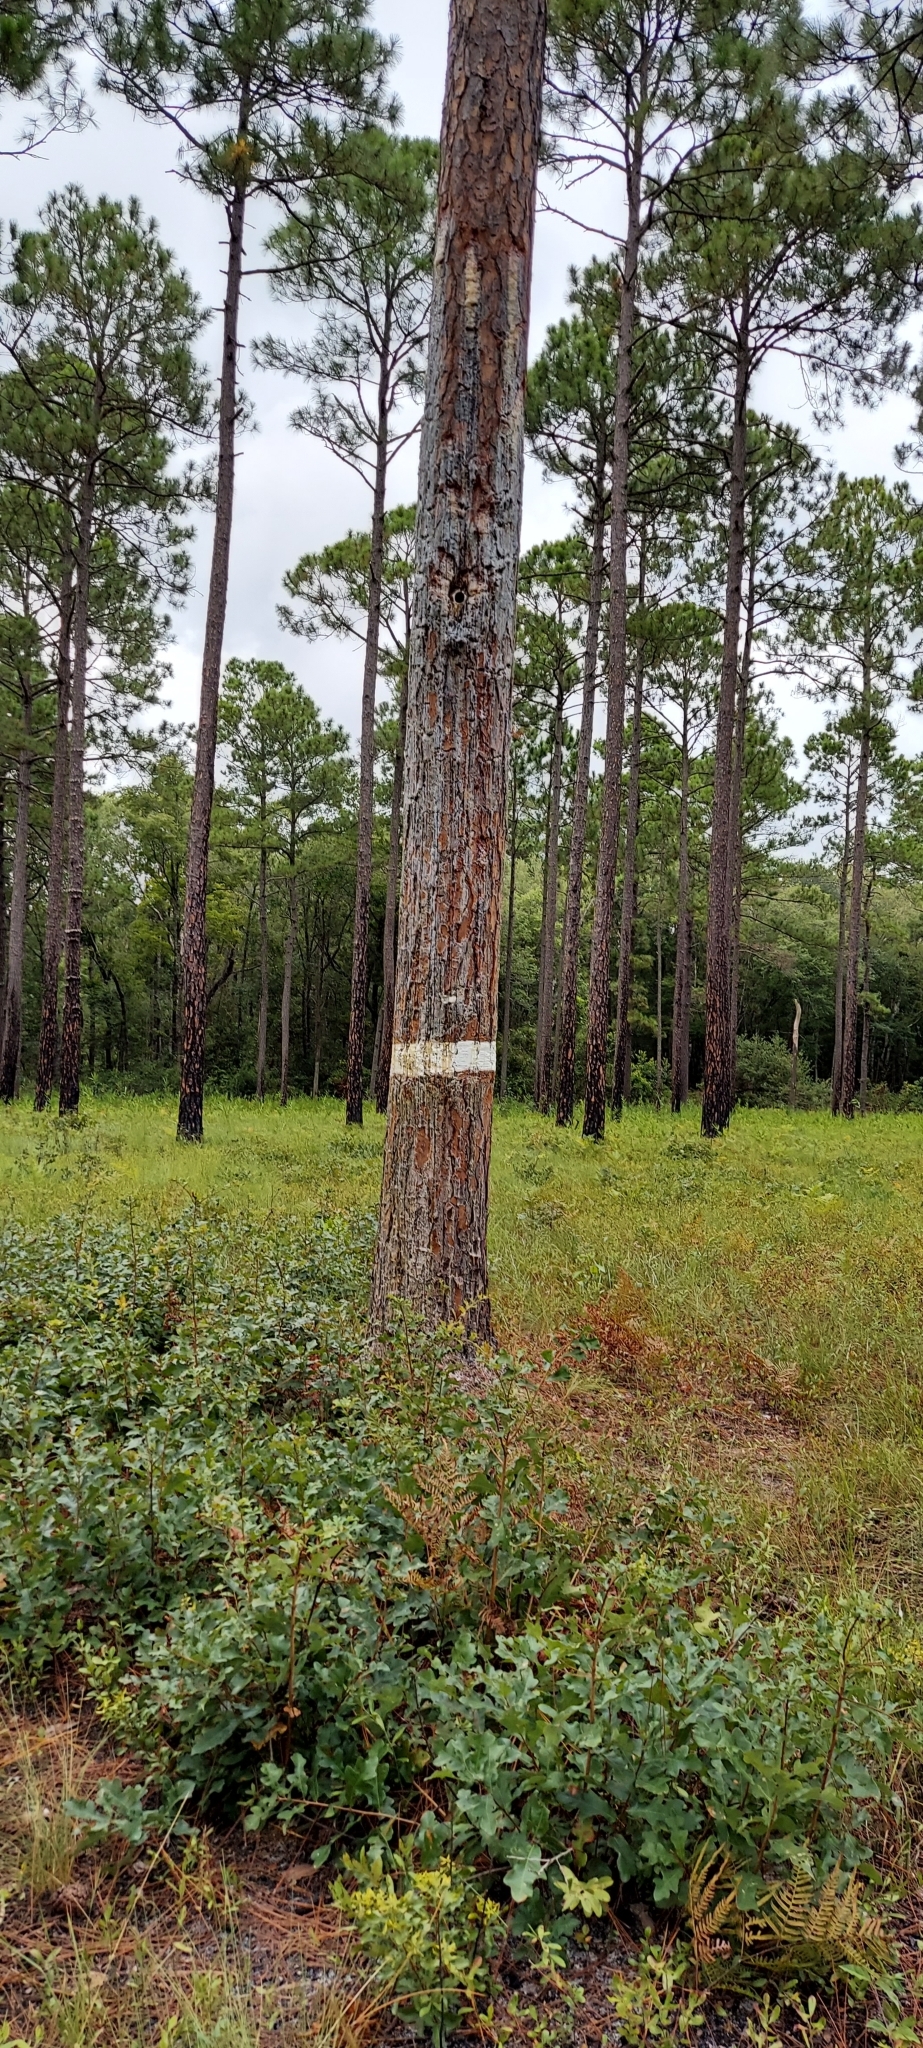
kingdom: Plantae
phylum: Tracheophyta
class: Pinopsida
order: Pinales
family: Pinaceae
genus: Pinus
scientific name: Pinus palustris
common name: Longleaf pine
